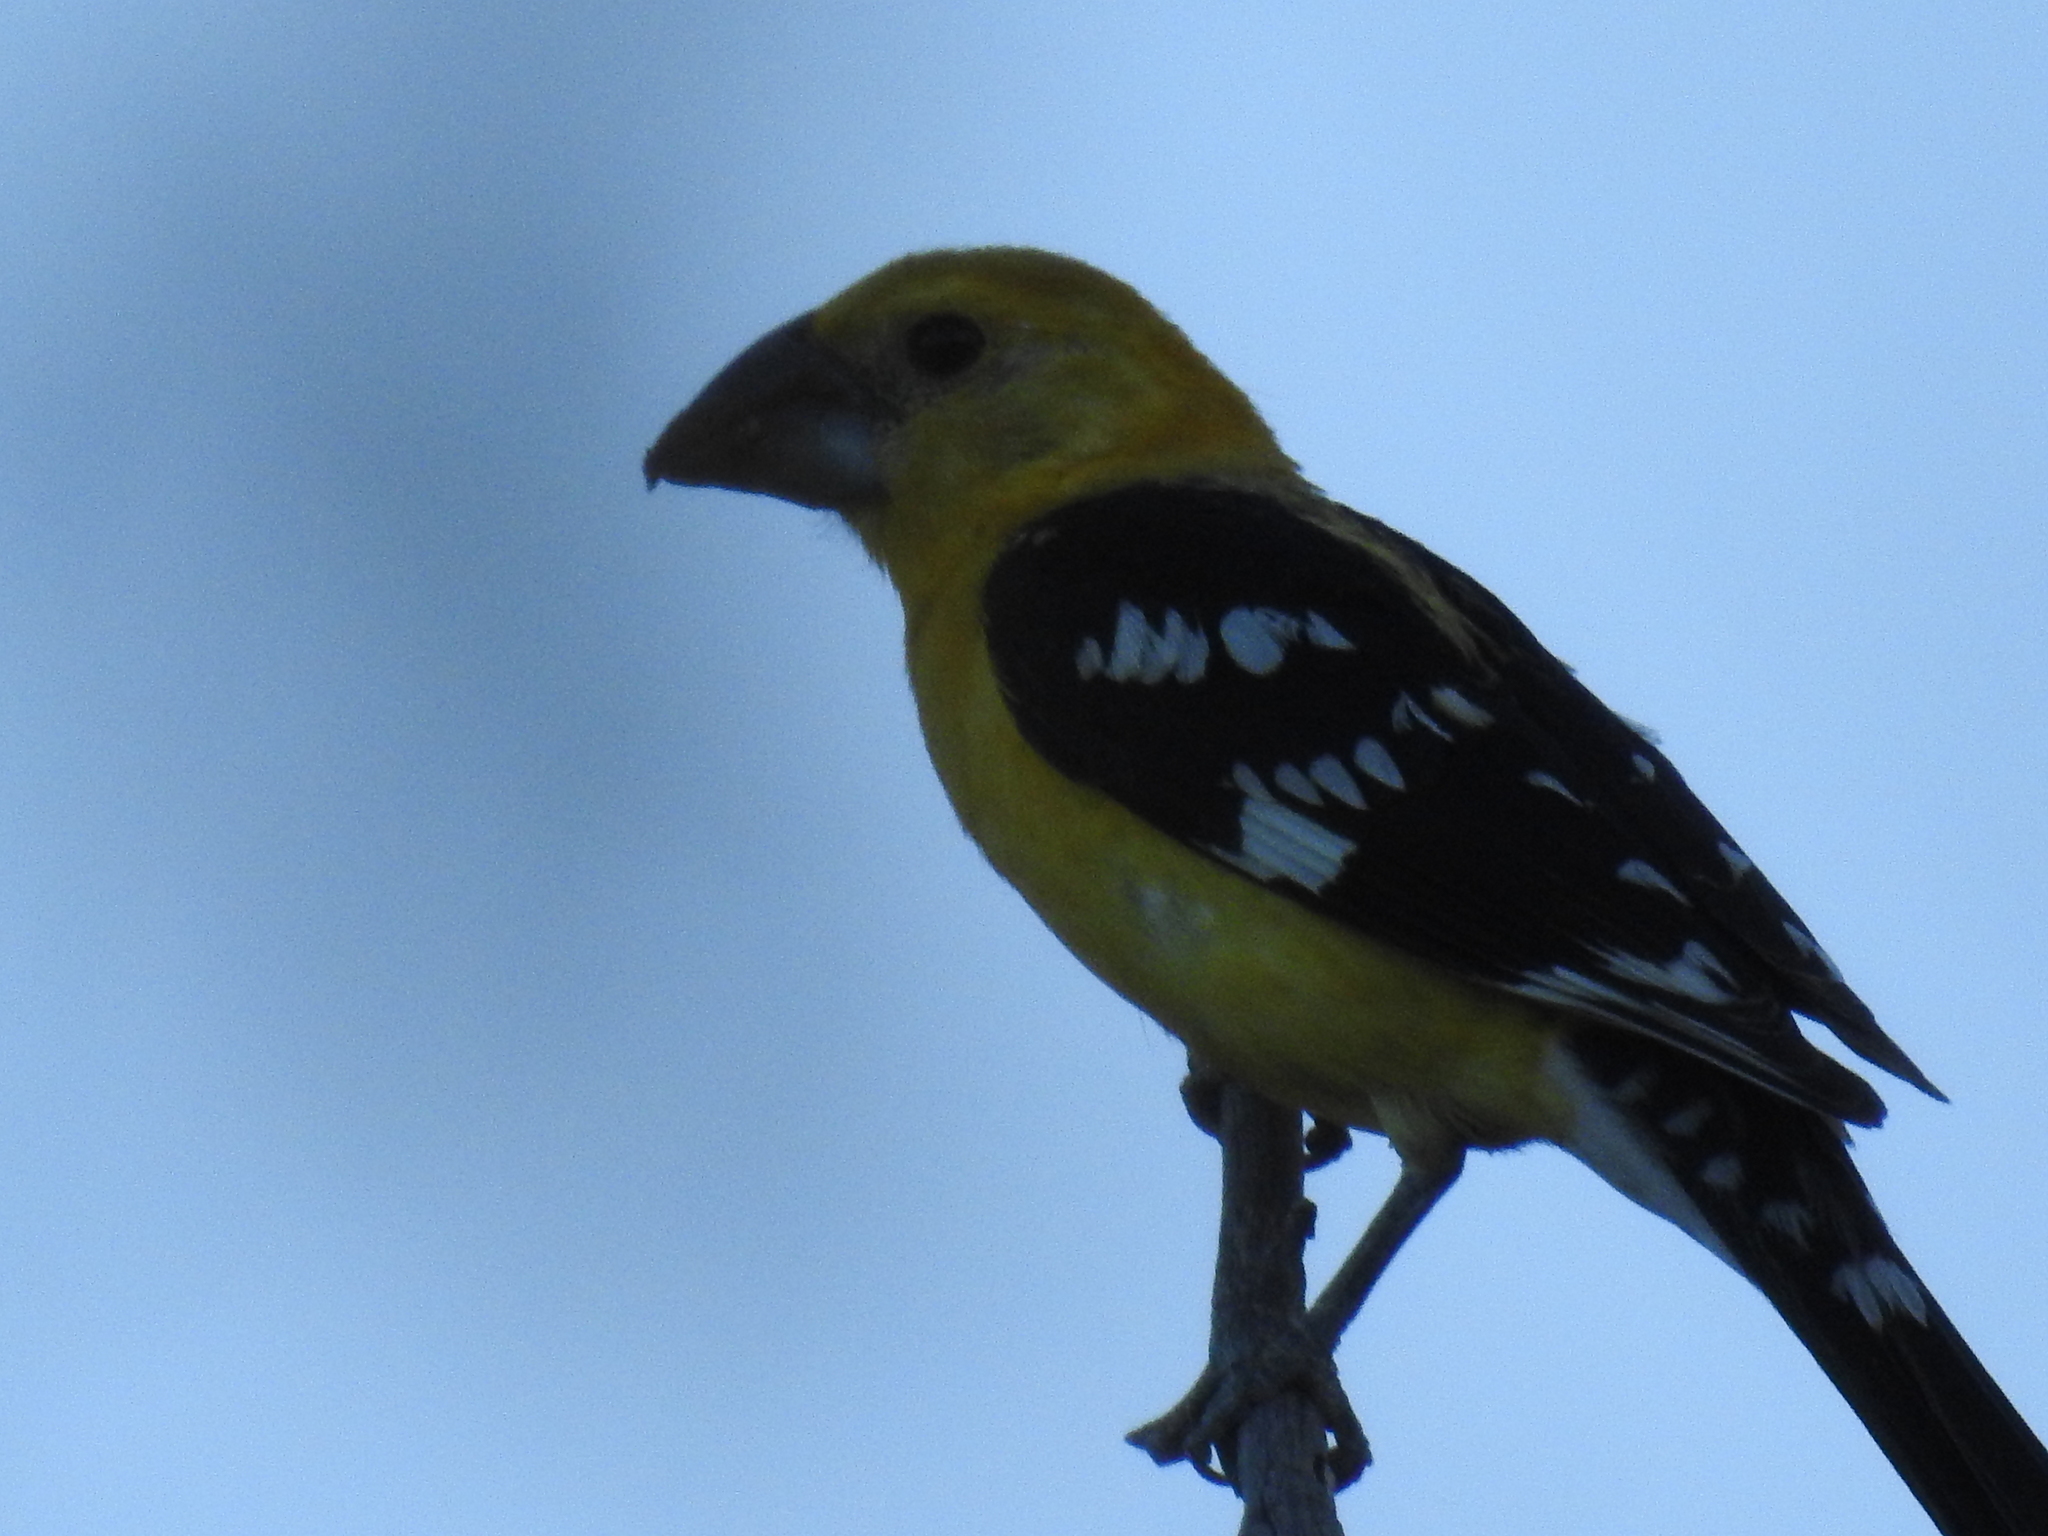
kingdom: Animalia
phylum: Chordata
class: Aves
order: Passeriformes
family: Cardinalidae
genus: Pheucticus
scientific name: Pheucticus chrysopeplus
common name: Yellow grosbeak
